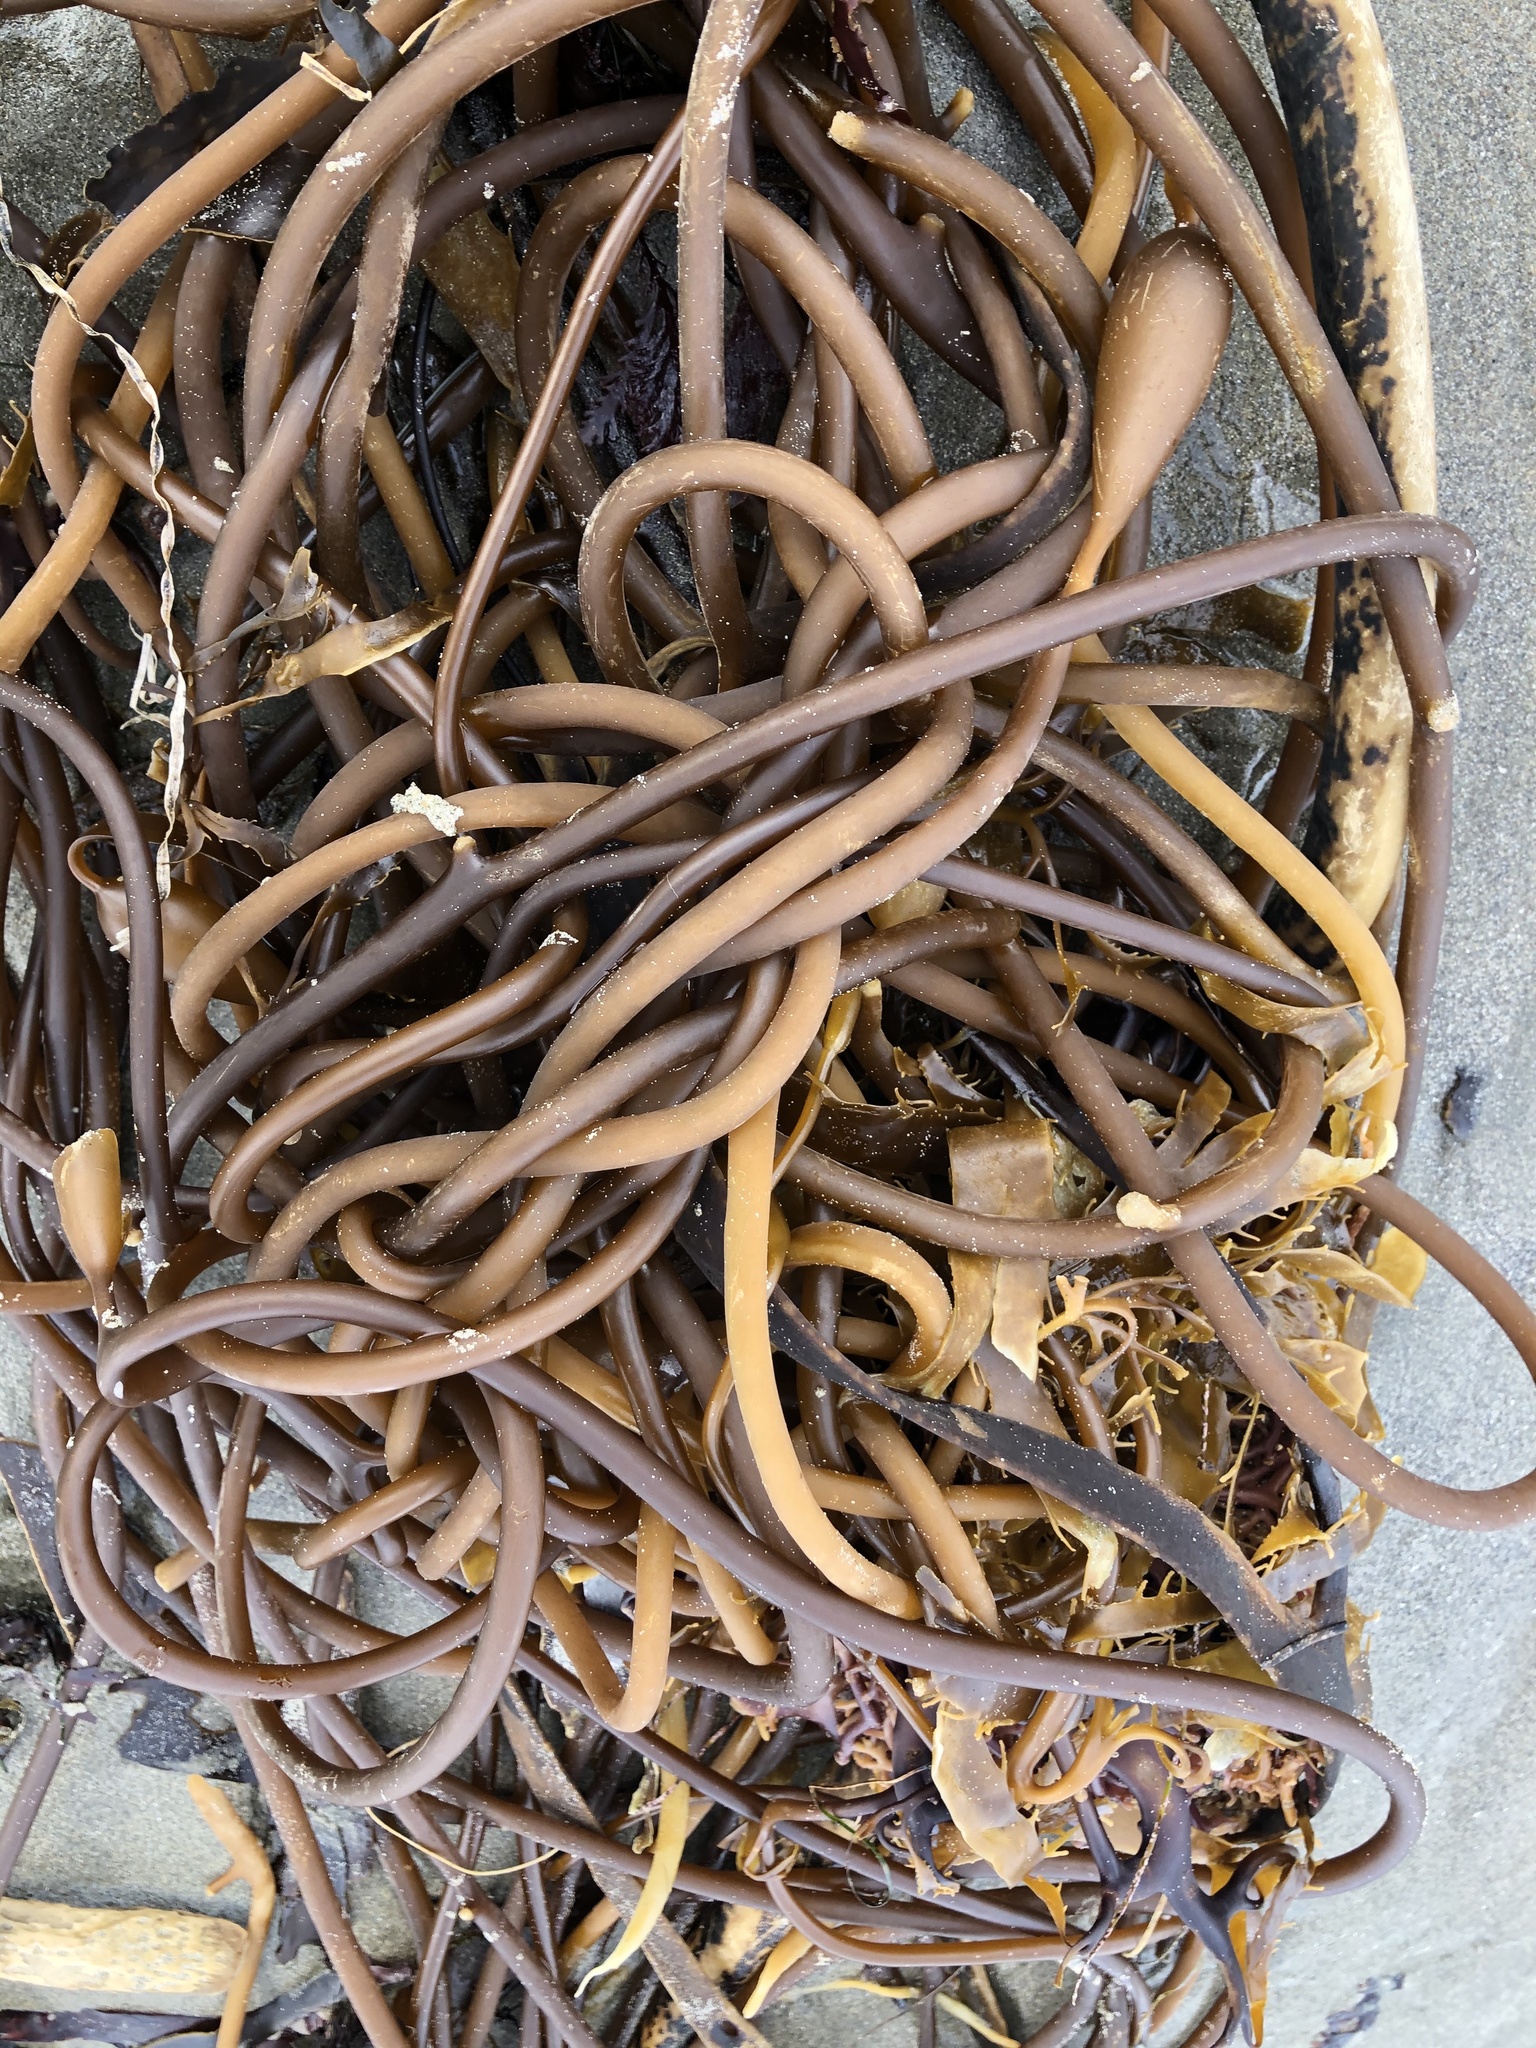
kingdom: Chromista
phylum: Ochrophyta
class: Phaeophyceae
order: Laminariales
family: Laminariaceae
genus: Macrocystis
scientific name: Macrocystis pyrifera
